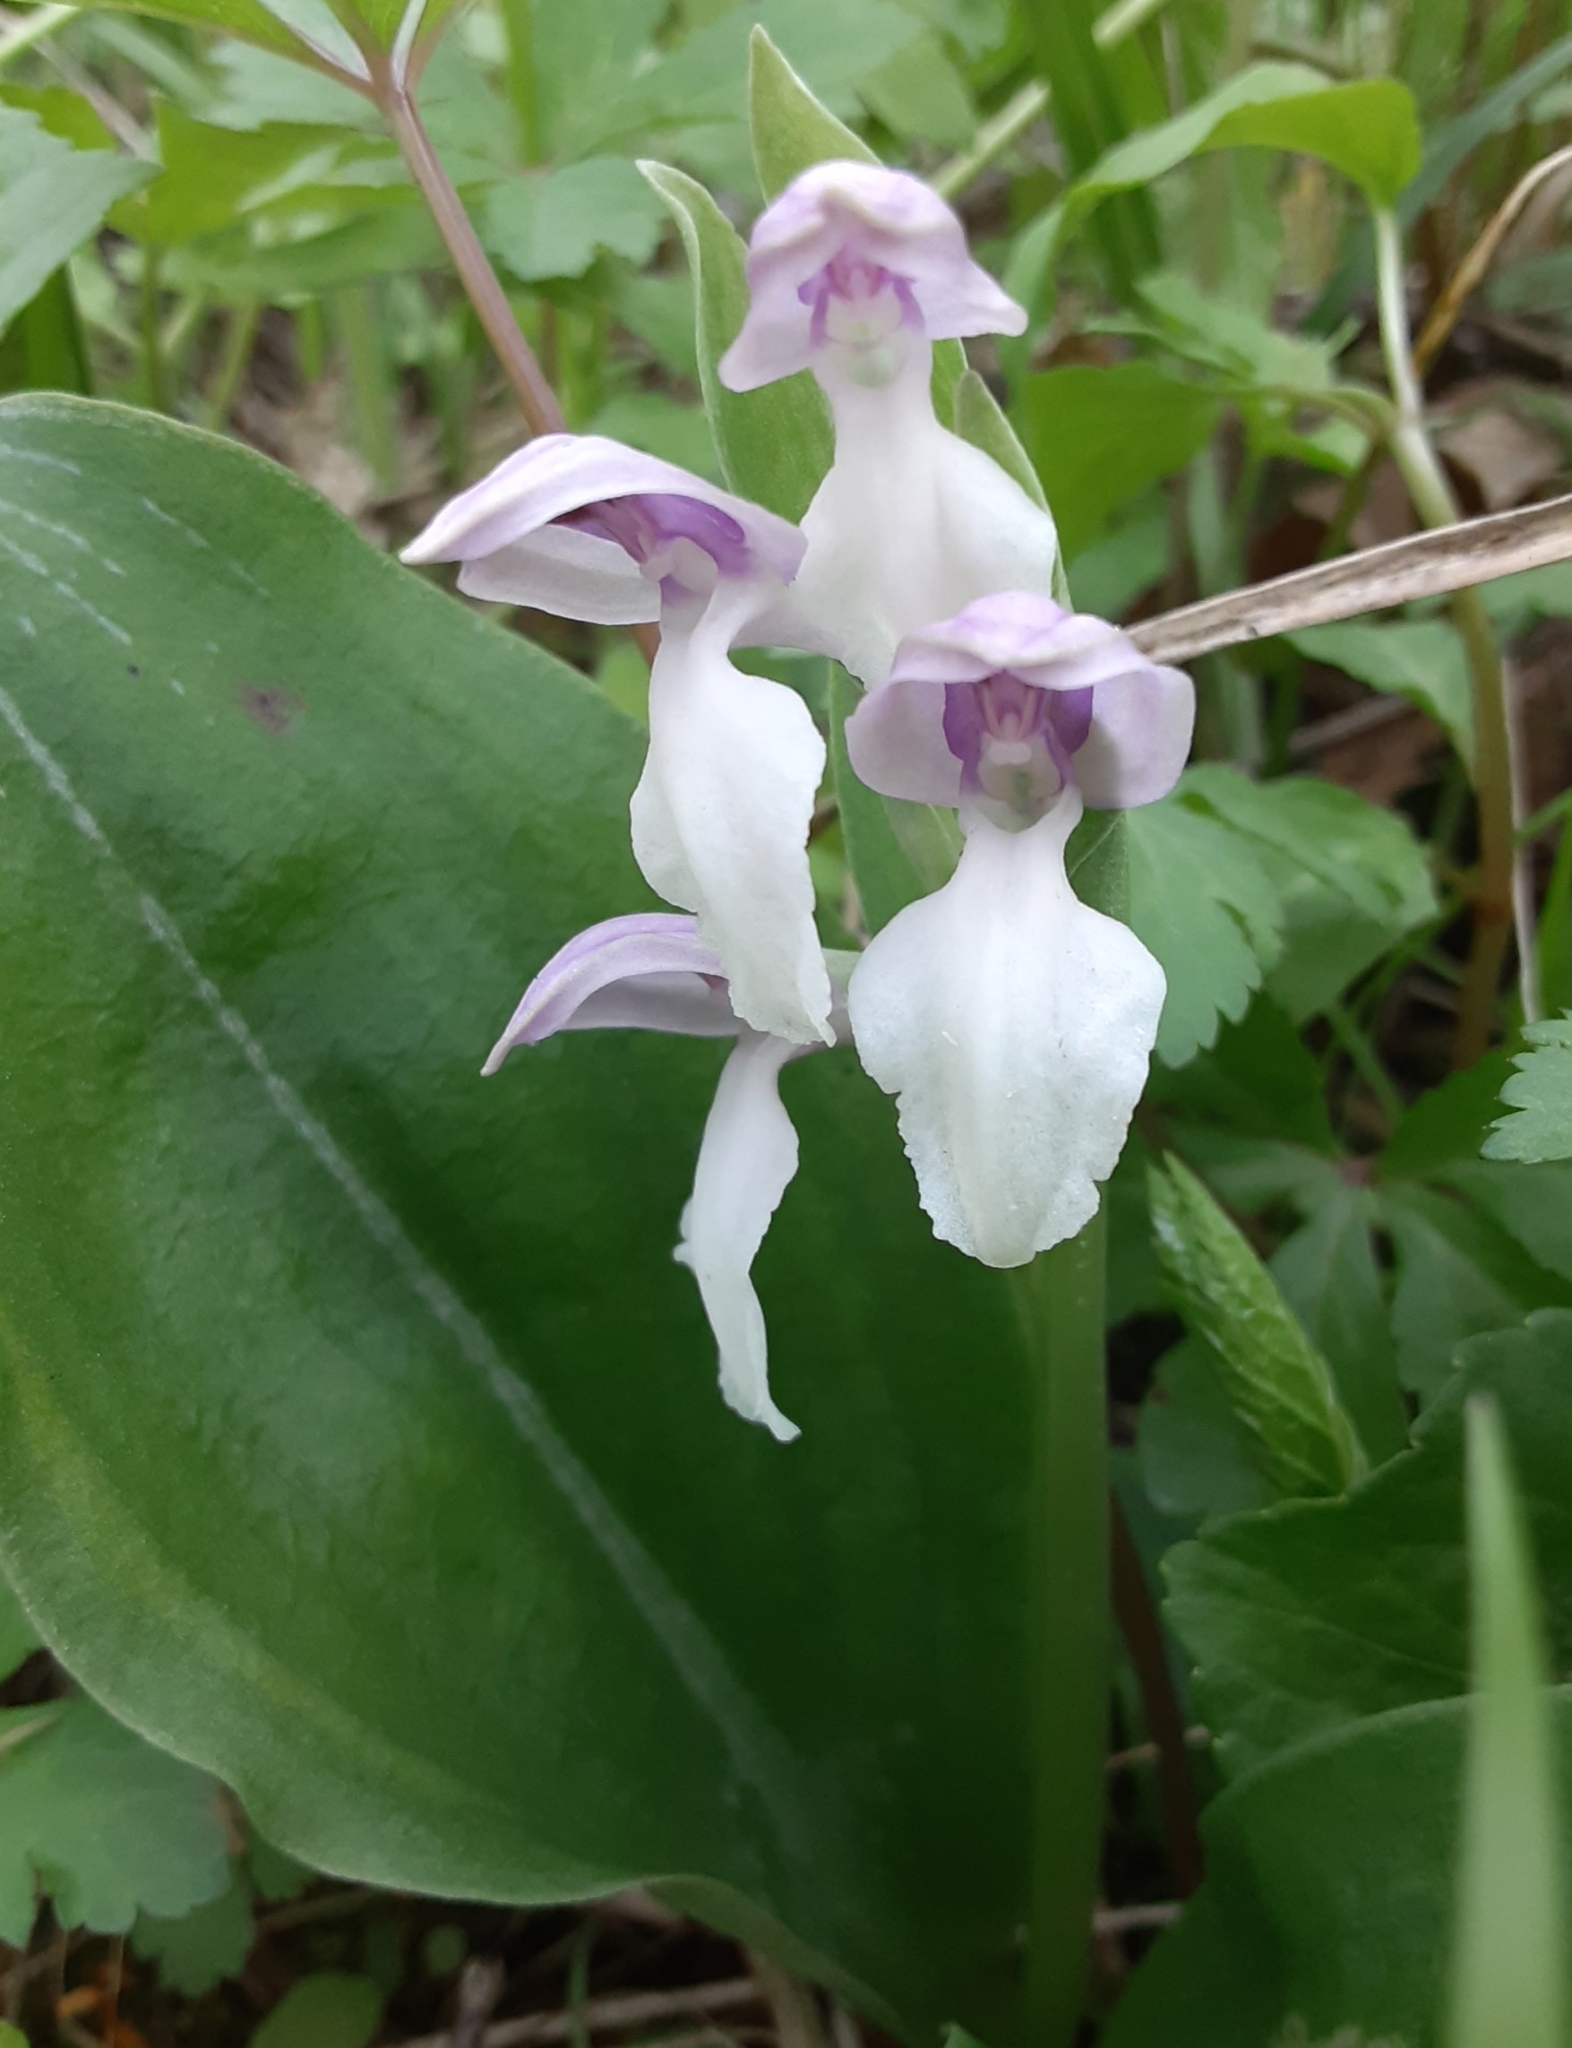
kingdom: Plantae
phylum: Tracheophyta
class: Liliopsida
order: Asparagales
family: Orchidaceae
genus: Galearis
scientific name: Galearis spectabilis
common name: Purple-hooded orchis
